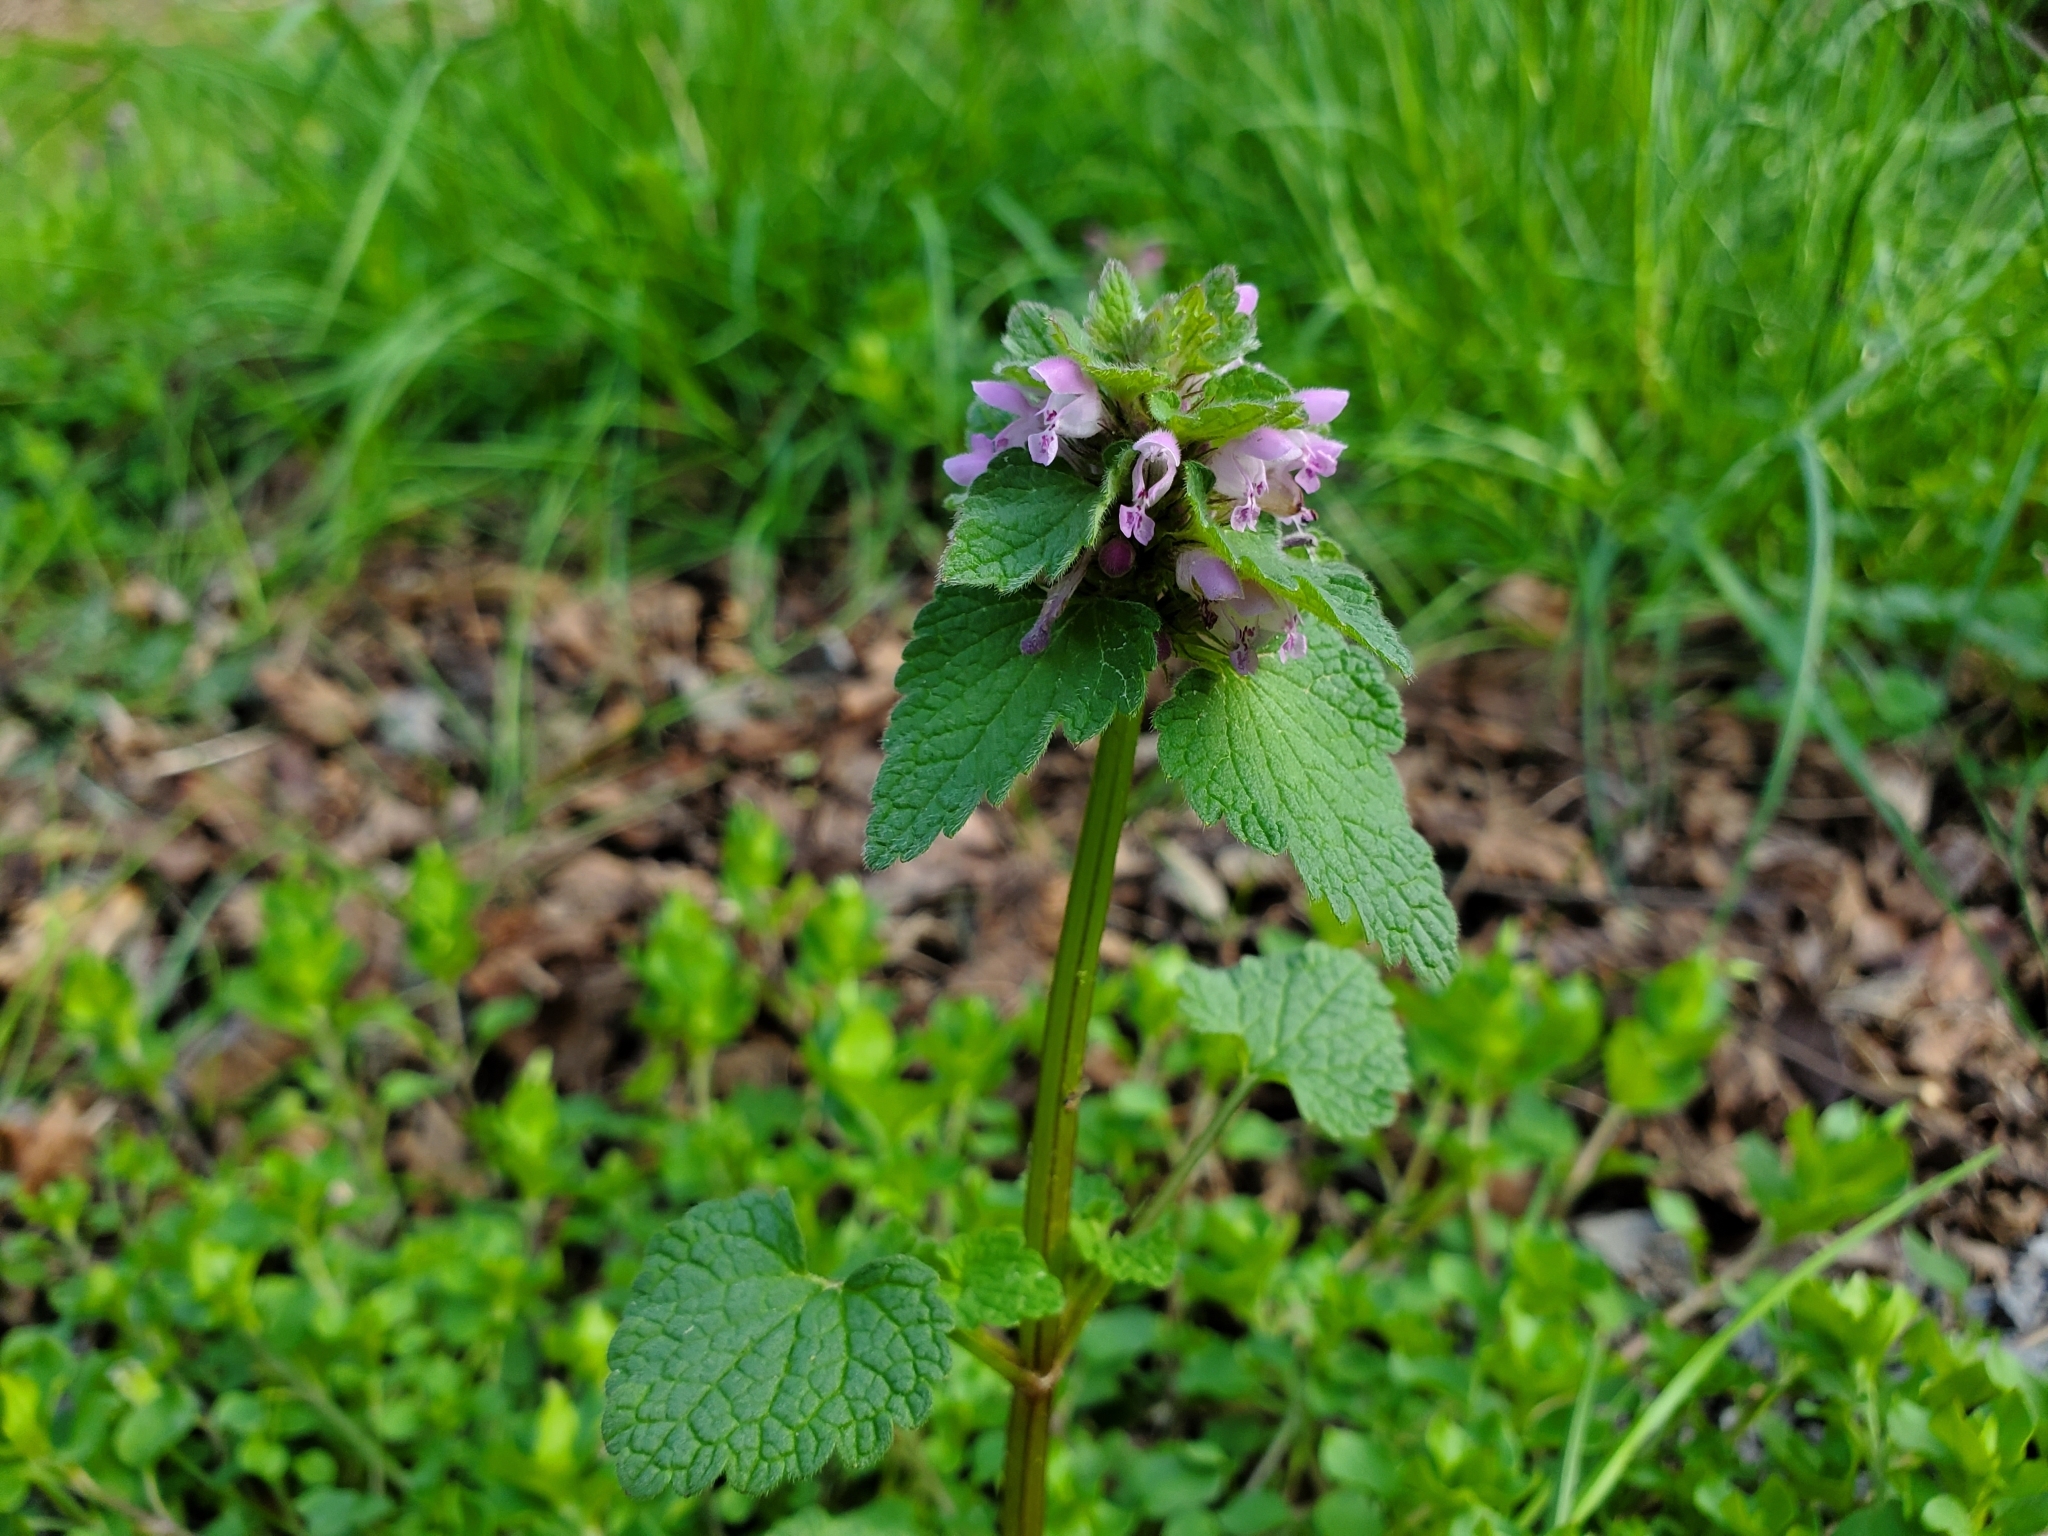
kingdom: Plantae
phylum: Tracheophyta
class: Magnoliopsida
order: Lamiales
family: Lamiaceae
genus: Lamium
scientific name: Lamium purpureum
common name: Red dead-nettle
